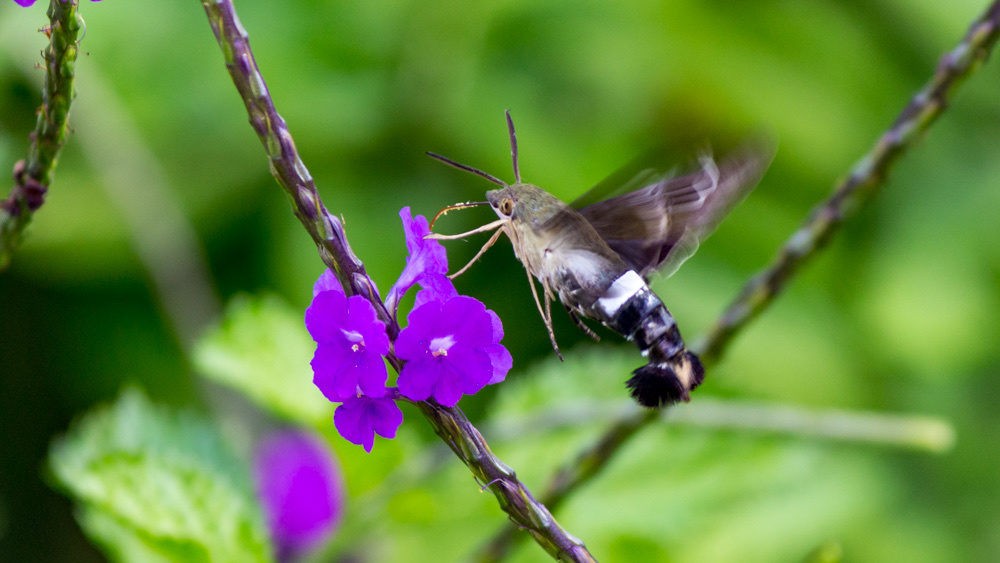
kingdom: Animalia
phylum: Arthropoda
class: Insecta
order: Lepidoptera
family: Sphingidae
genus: Aellopos
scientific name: Aellopos clavipes
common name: Clavipes sphinx
